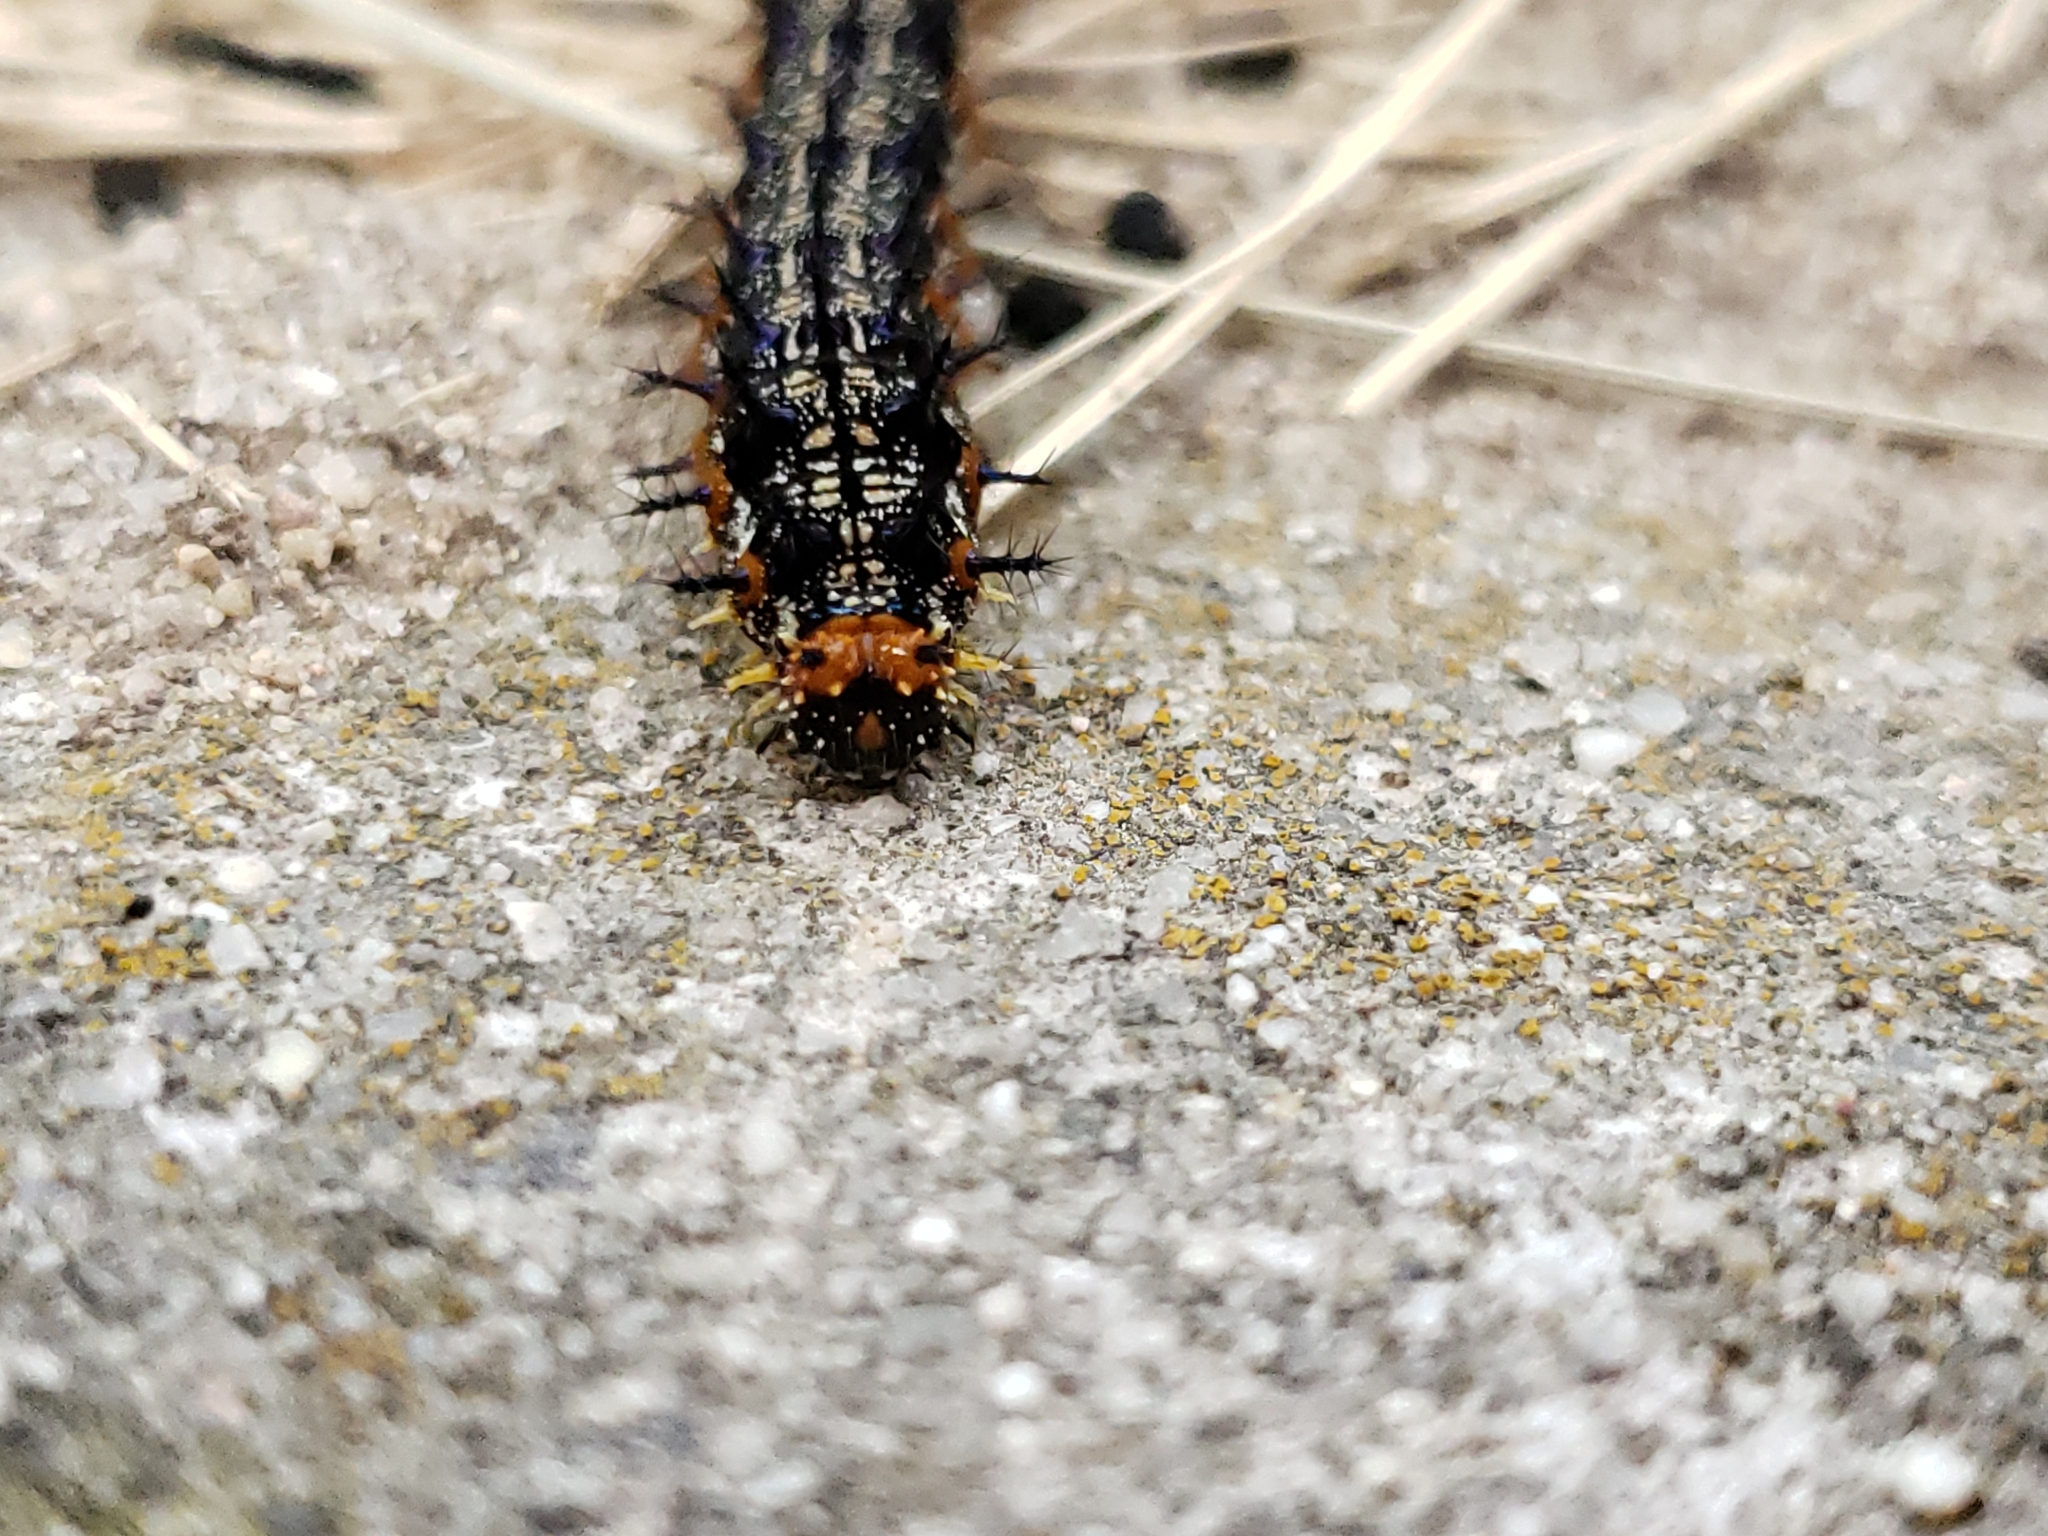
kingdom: Animalia
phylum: Arthropoda
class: Insecta
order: Lepidoptera
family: Nymphalidae
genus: Junonia
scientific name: Junonia coenia
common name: Common buckeye
